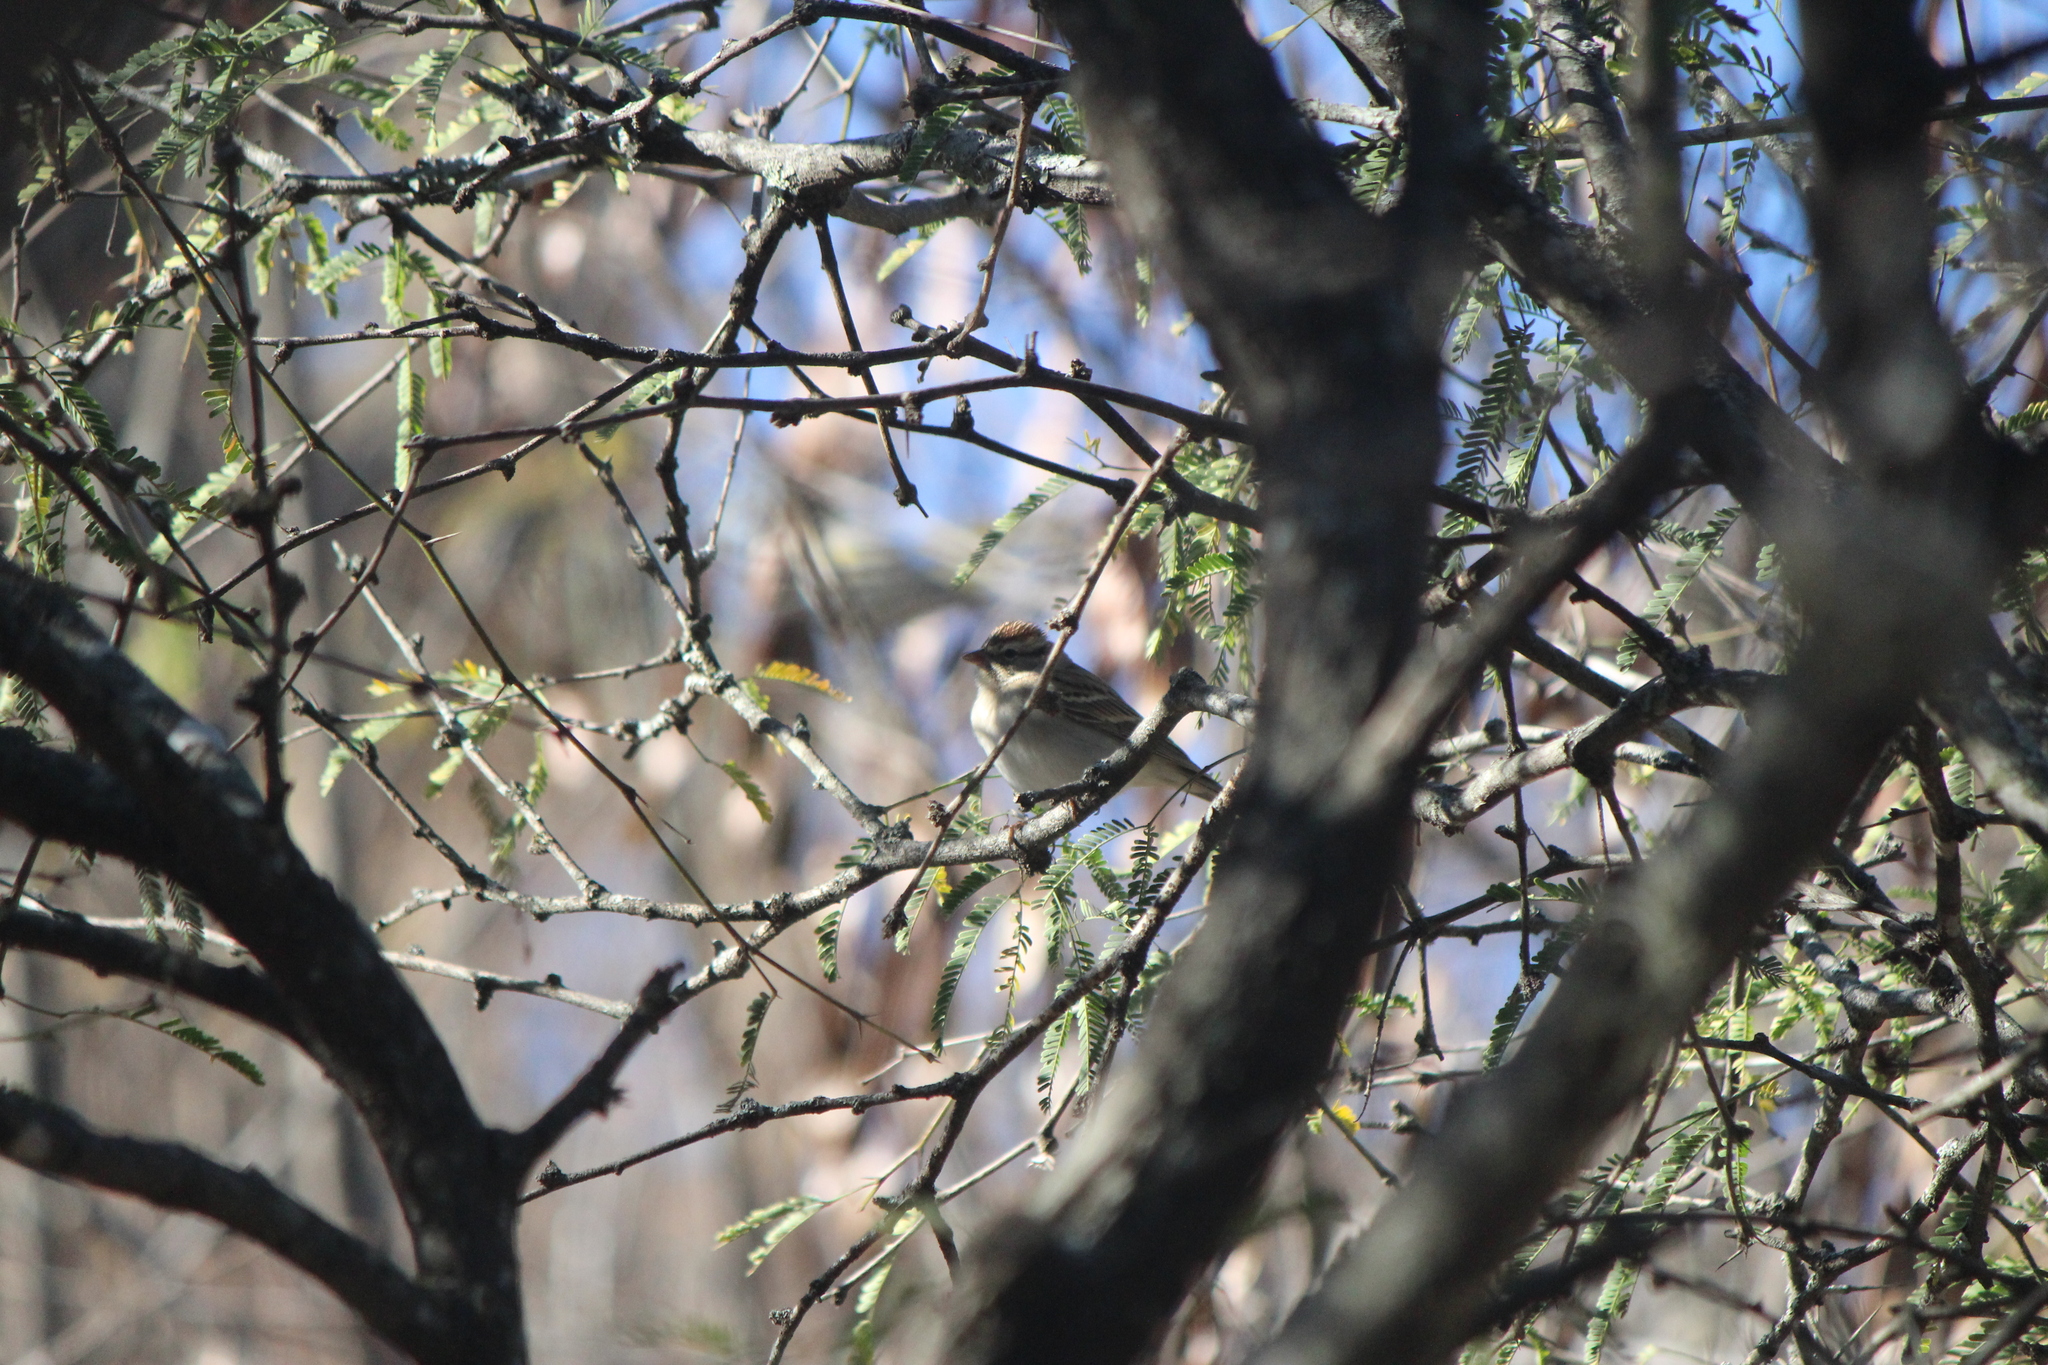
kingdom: Animalia
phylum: Chordata
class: Aves
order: Passeriformes
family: Passerellidae
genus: Spizella
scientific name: Spizella passerina
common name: Chipping sparrow
